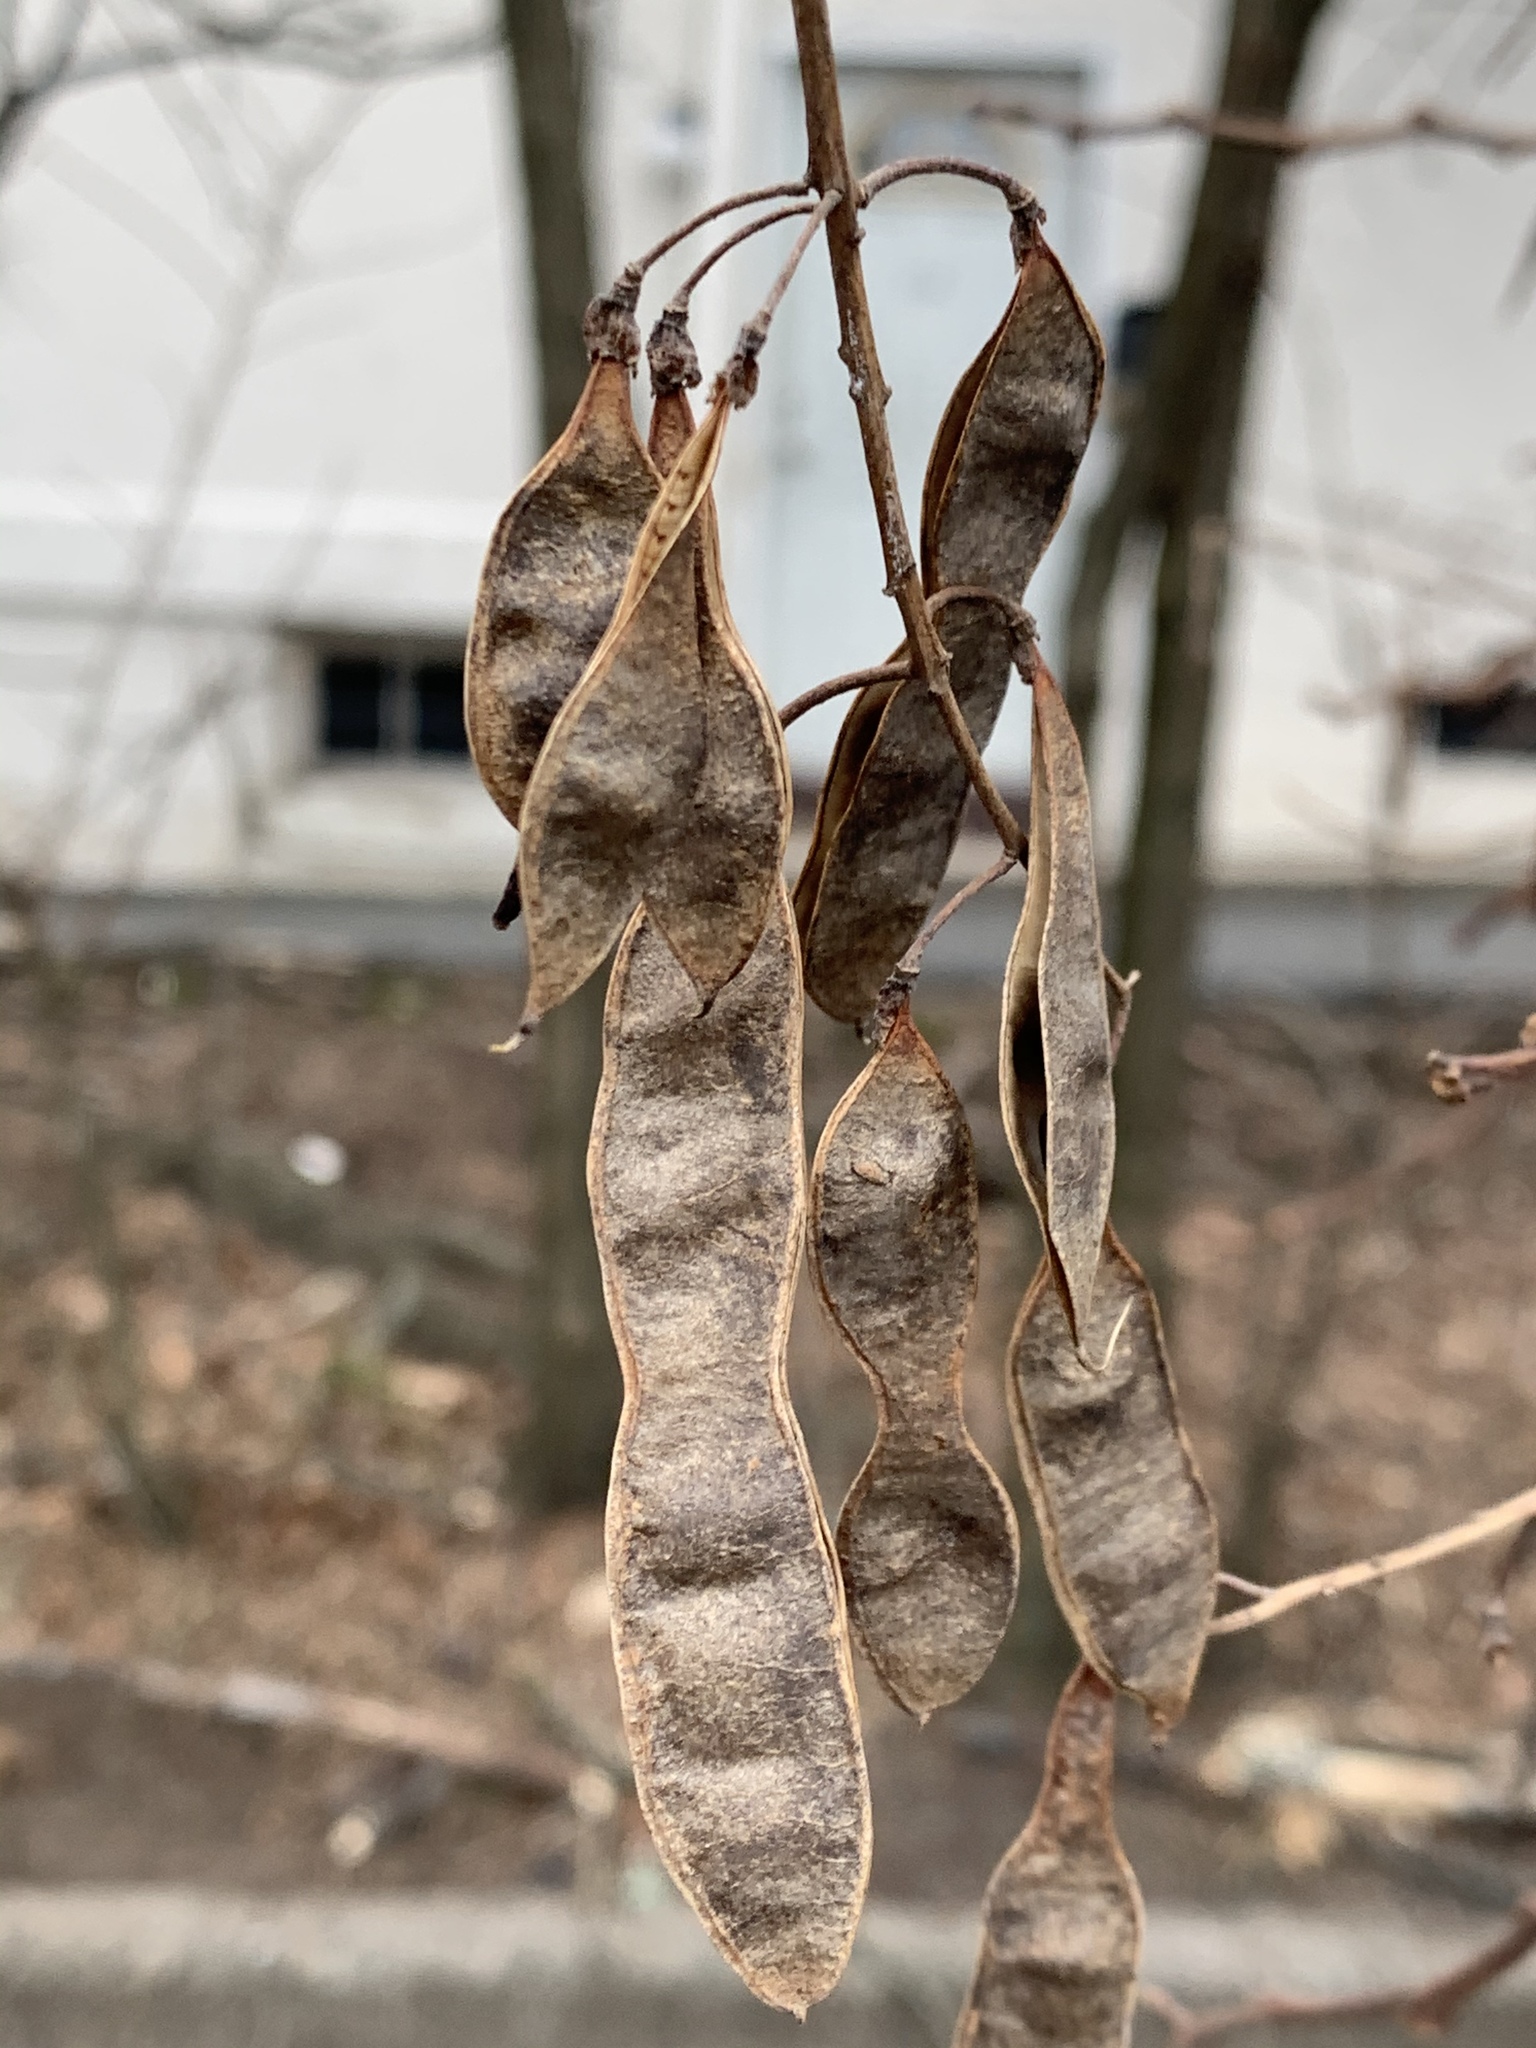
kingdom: Plantae
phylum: Tracheophyta
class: Magnoliopsida
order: Fabales
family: Fabaceae
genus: Robinia
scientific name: Robinia pseudoacacia
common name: Black locust
